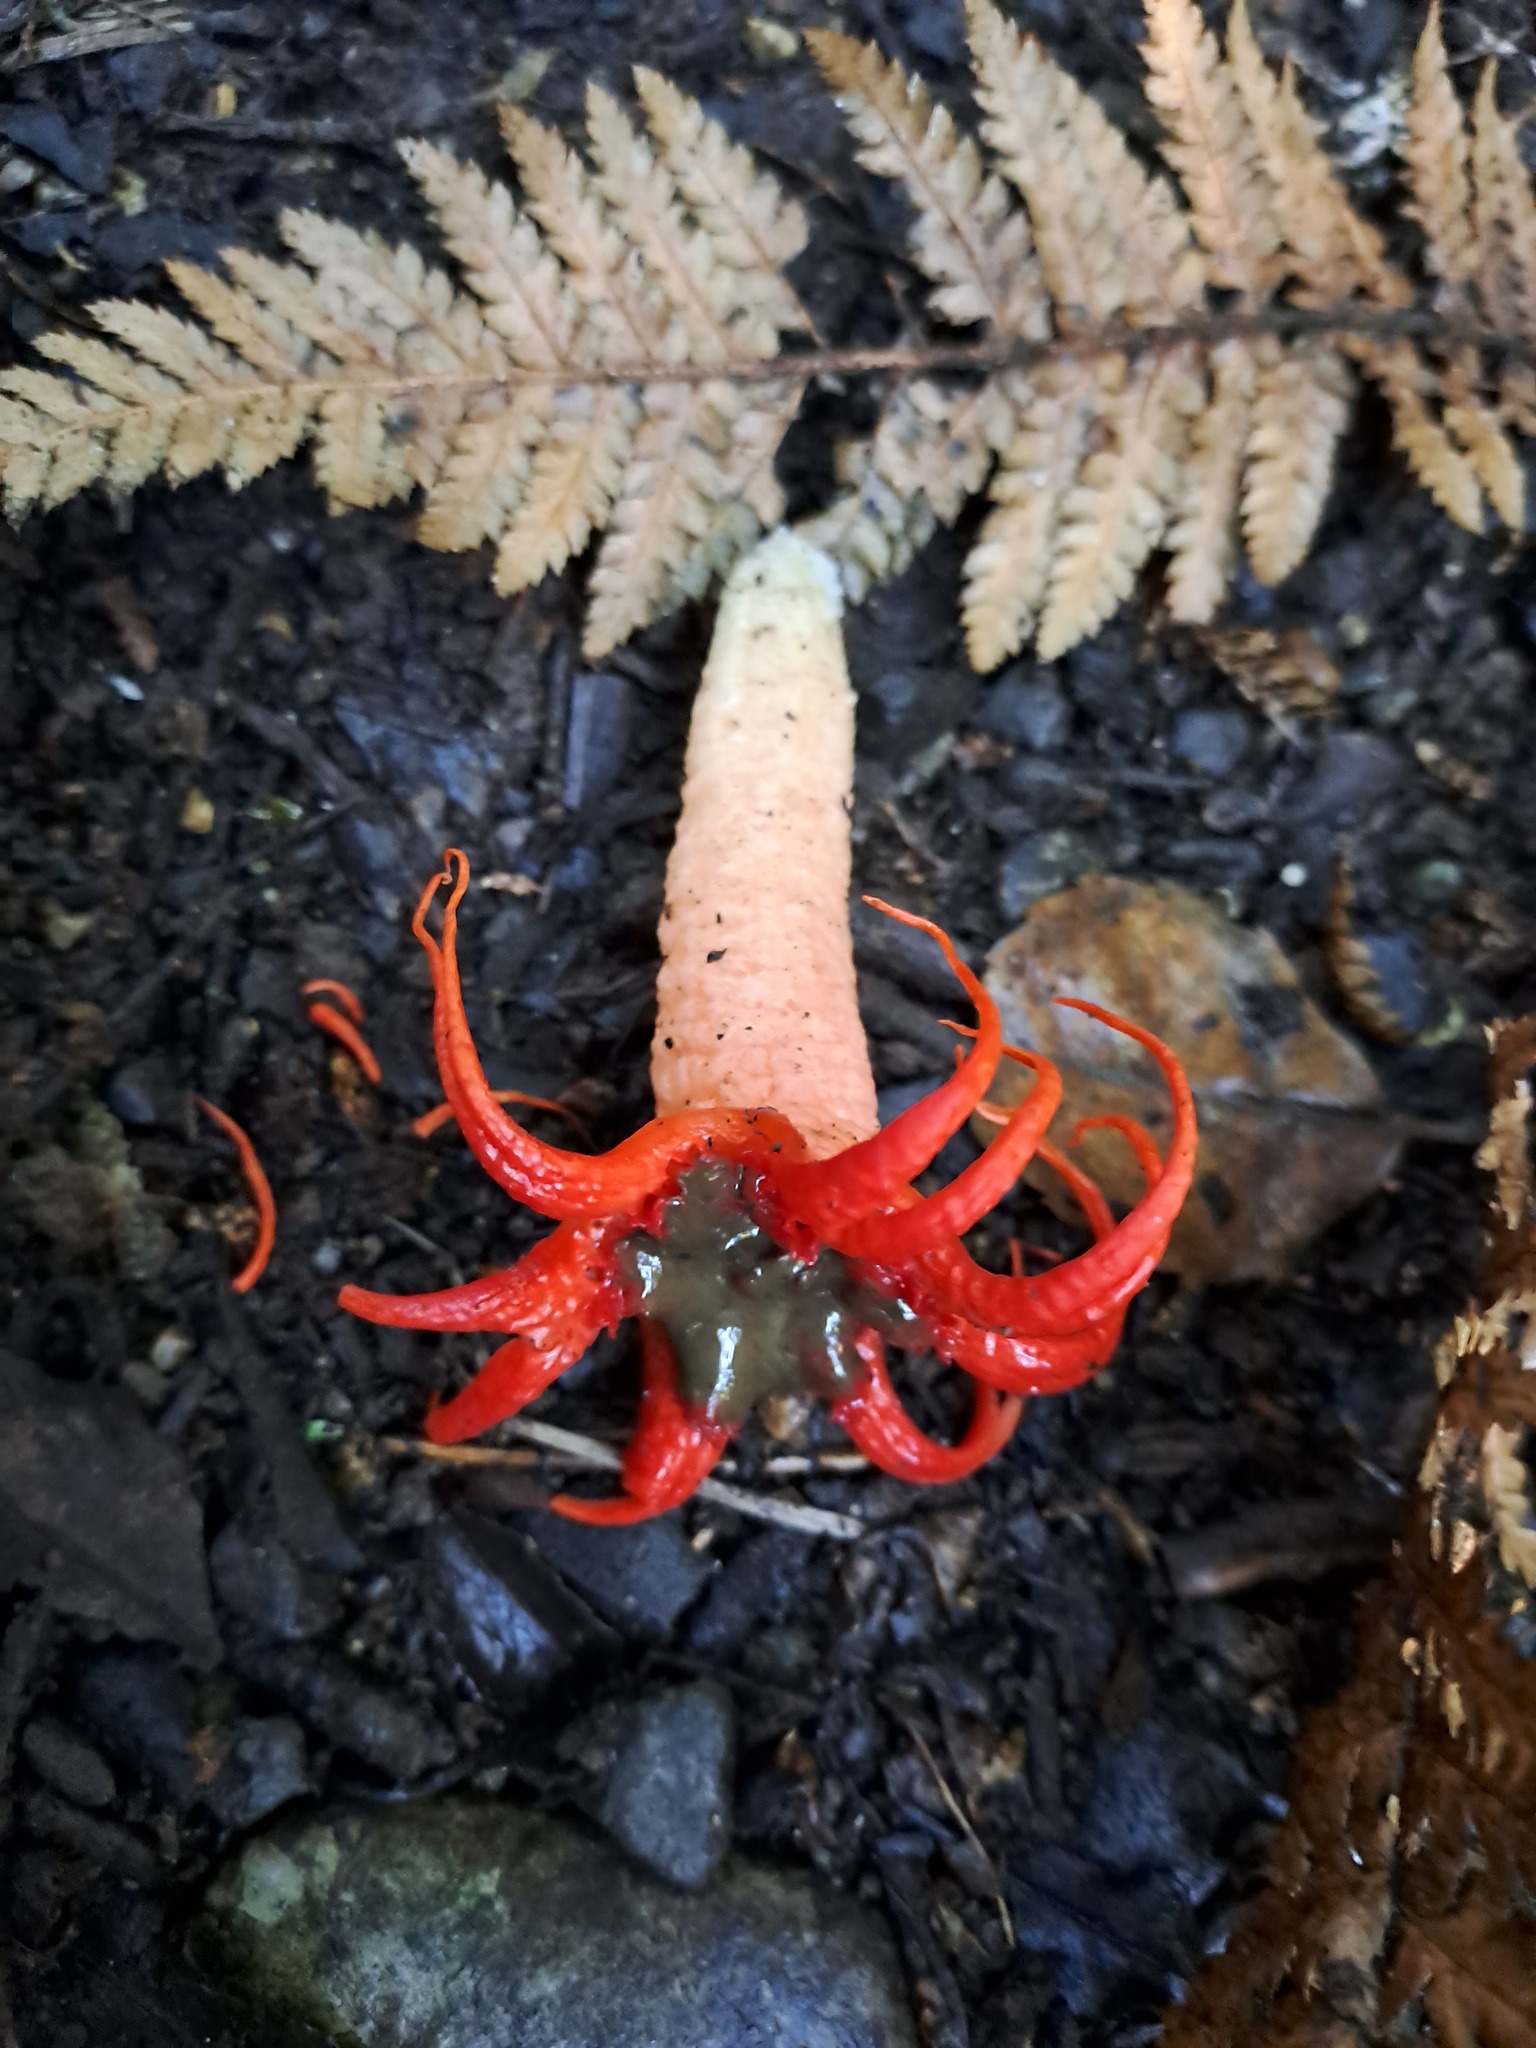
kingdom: Fungi
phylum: Basidiomycota
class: Agaricomycetes
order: Phallales
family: Phallaceae
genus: Aseroe
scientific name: Aseroe rubra
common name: Starfish fungus
